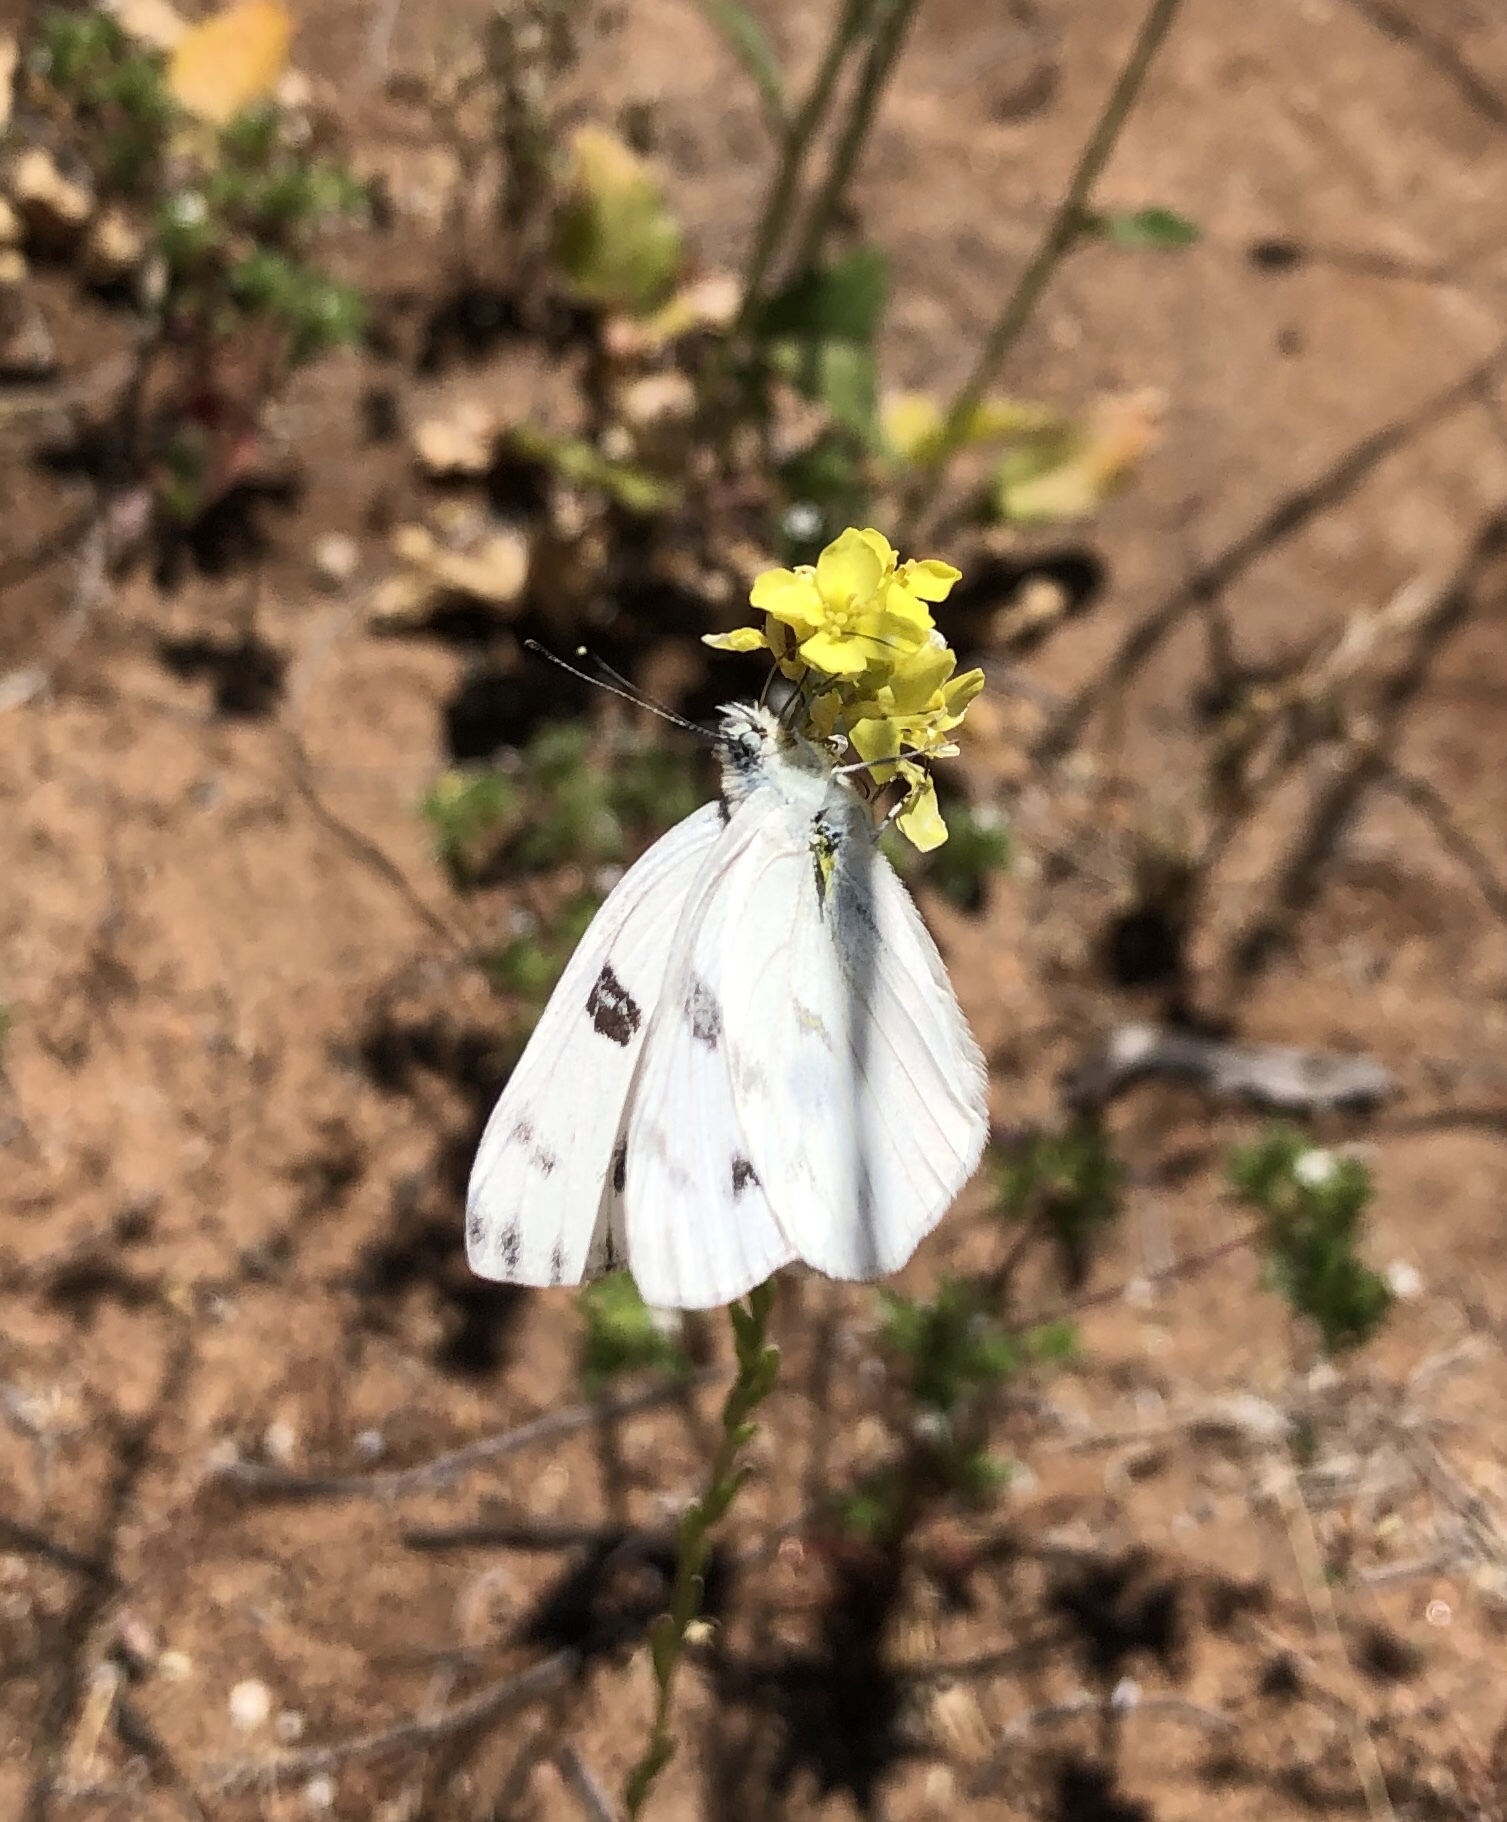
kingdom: Animalia
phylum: Arthropoda
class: Insecta
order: Lepidoptera
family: Pieridae
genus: Pontia
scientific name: Pontia protodice
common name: Checkered white
